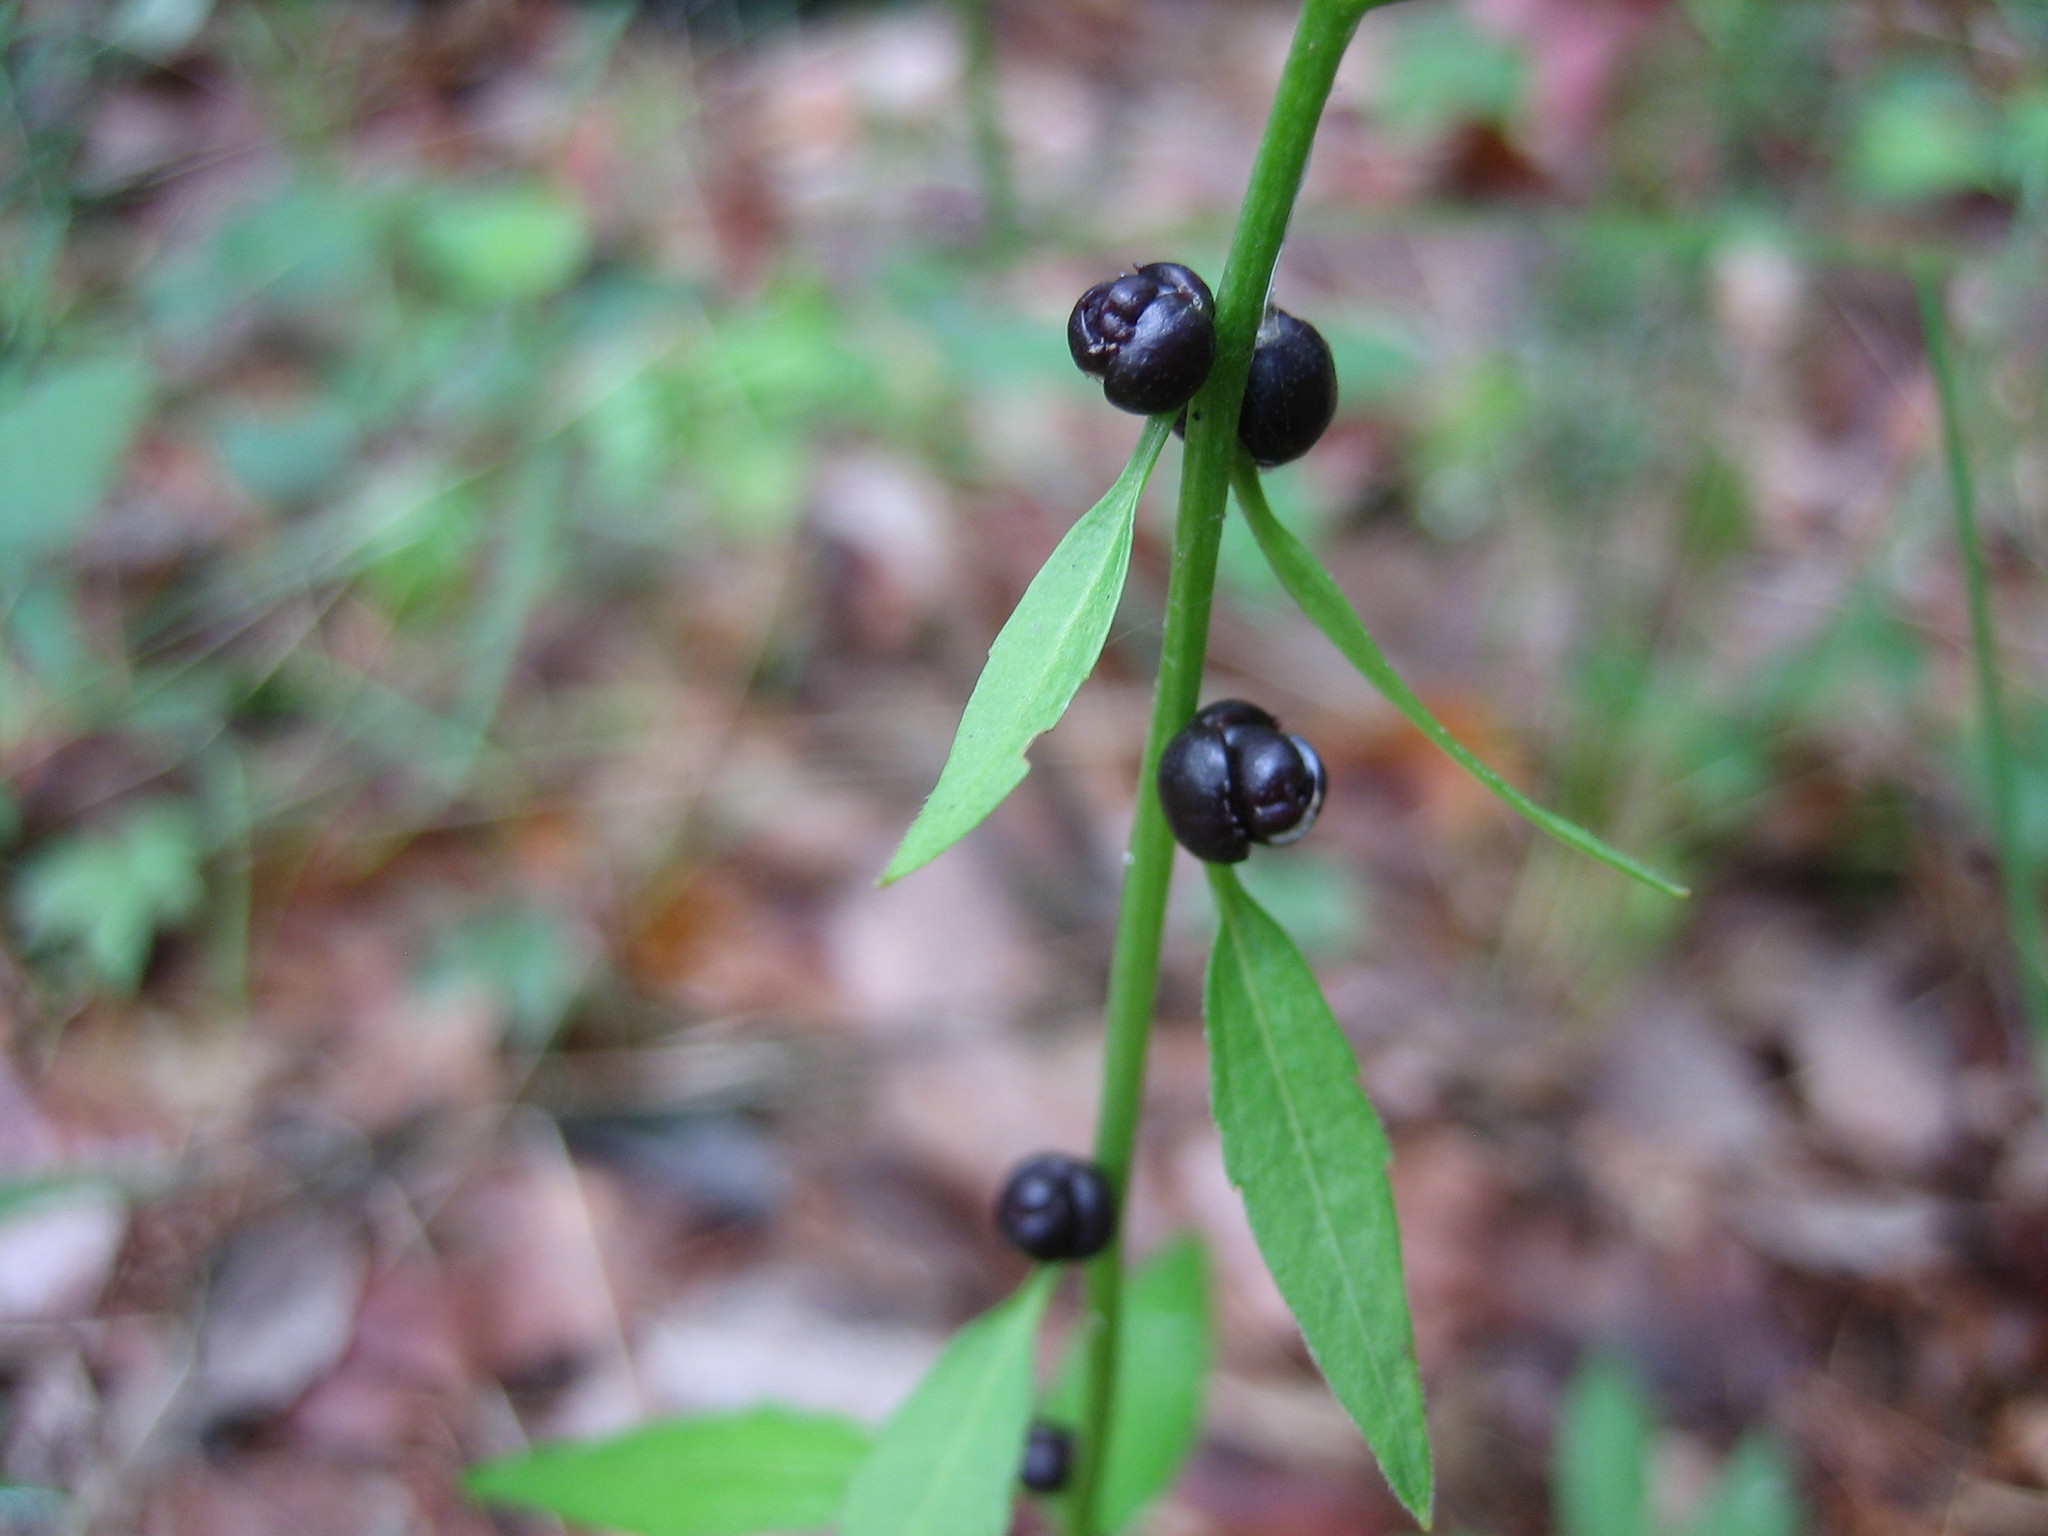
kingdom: Plantae
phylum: Tracheophyta
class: Magnoliopsida
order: Brassicales
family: Brassicaceae
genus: Cardamine
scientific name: Cardamine bulbifera
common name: Coralroot bittercress
